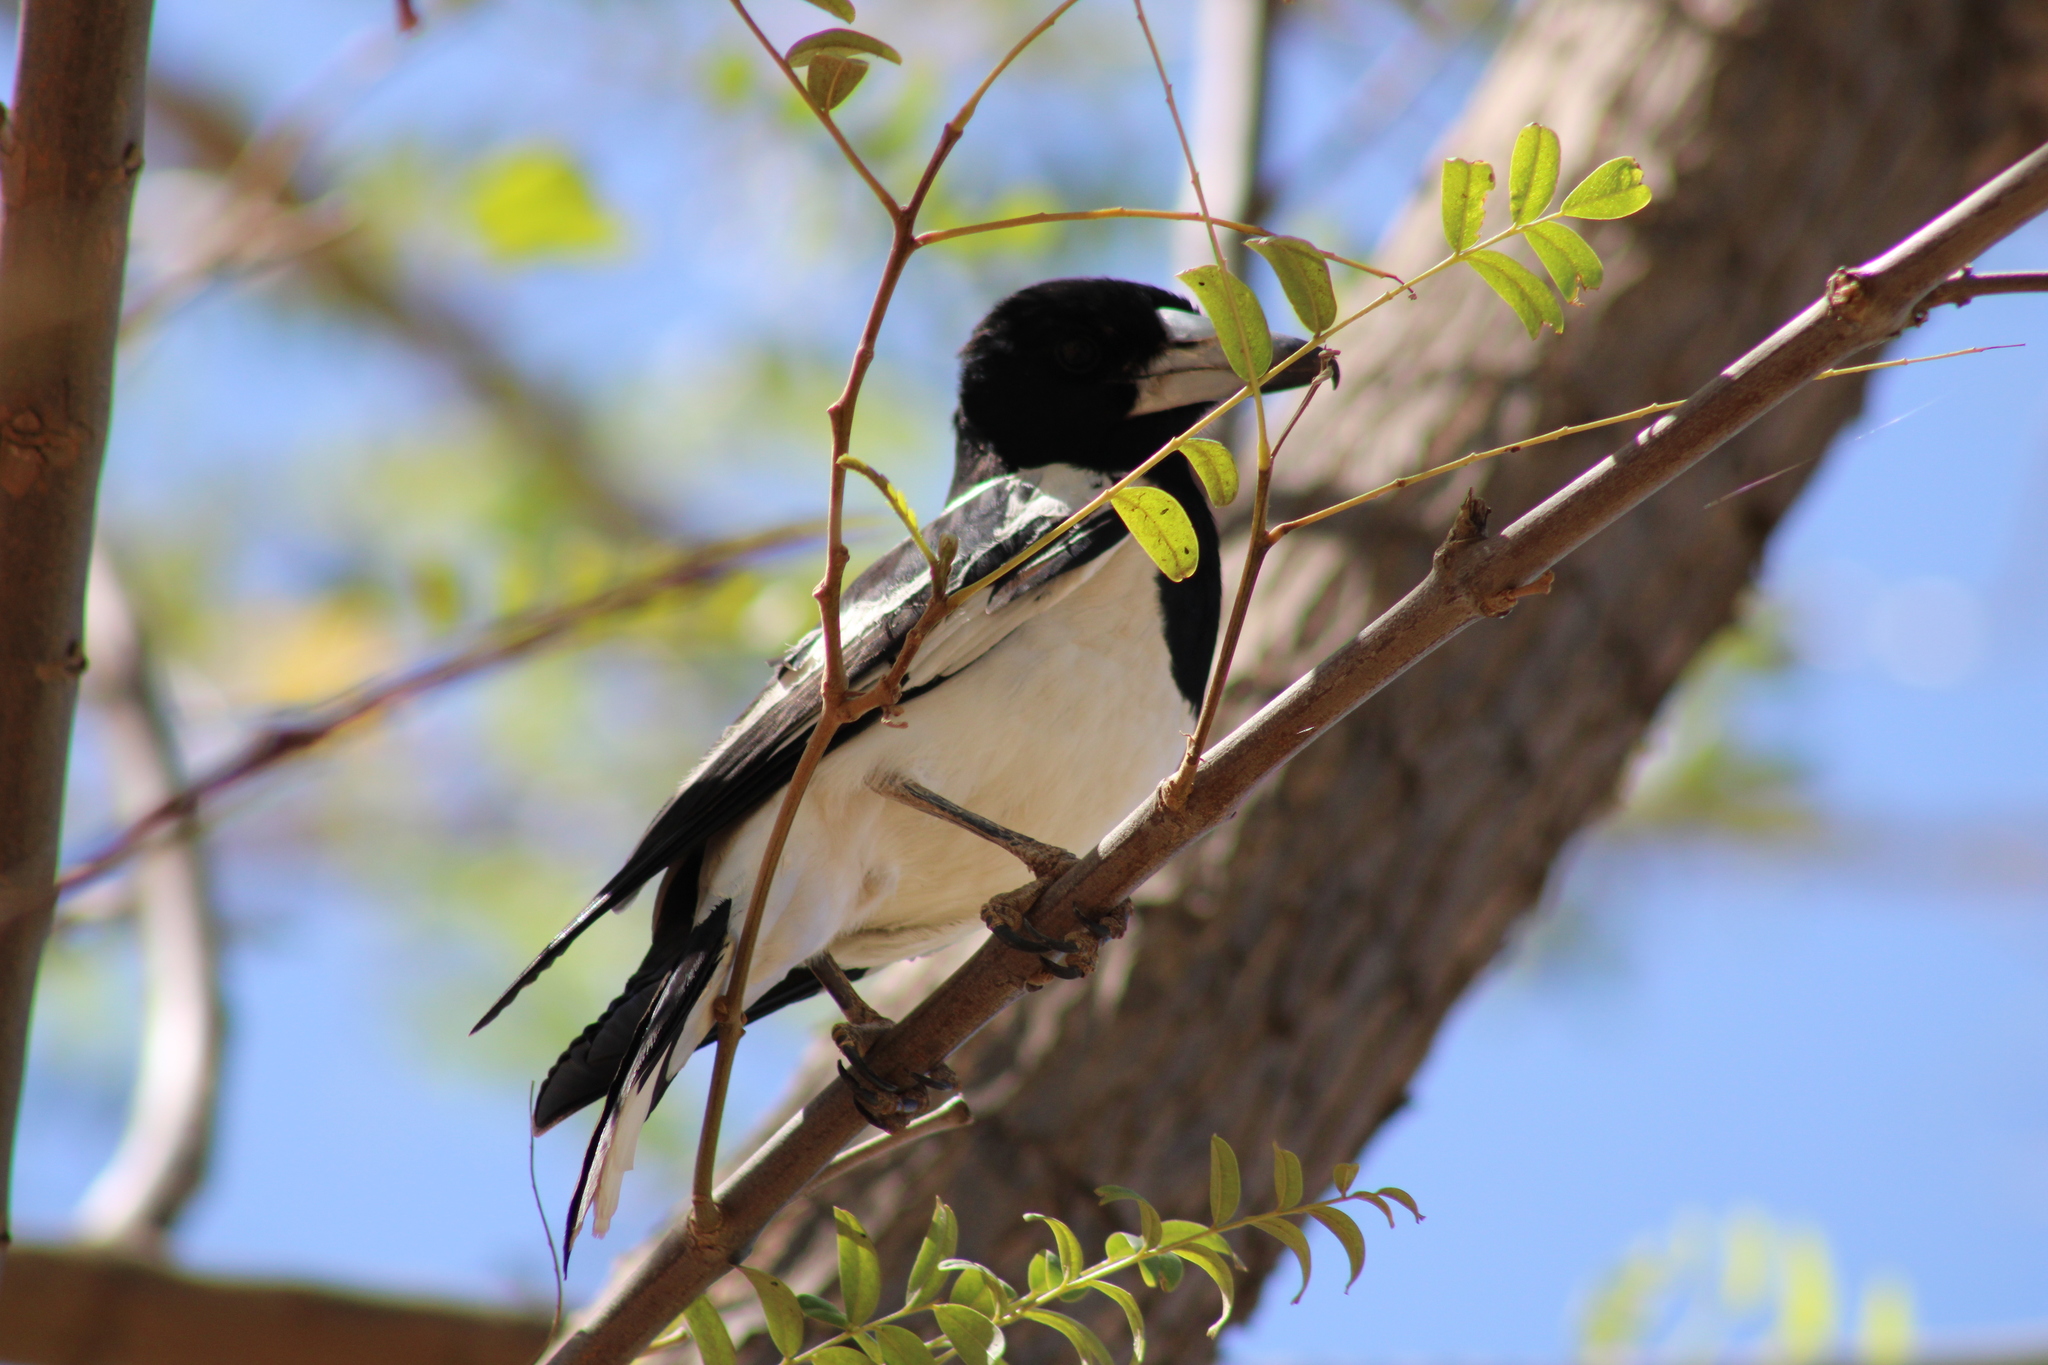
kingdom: Animalia
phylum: Chordata
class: Aves
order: Passeriformes
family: Cracticidae
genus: Cracticus
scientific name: Cracticus nigrogularis
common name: Pied butcherbird
